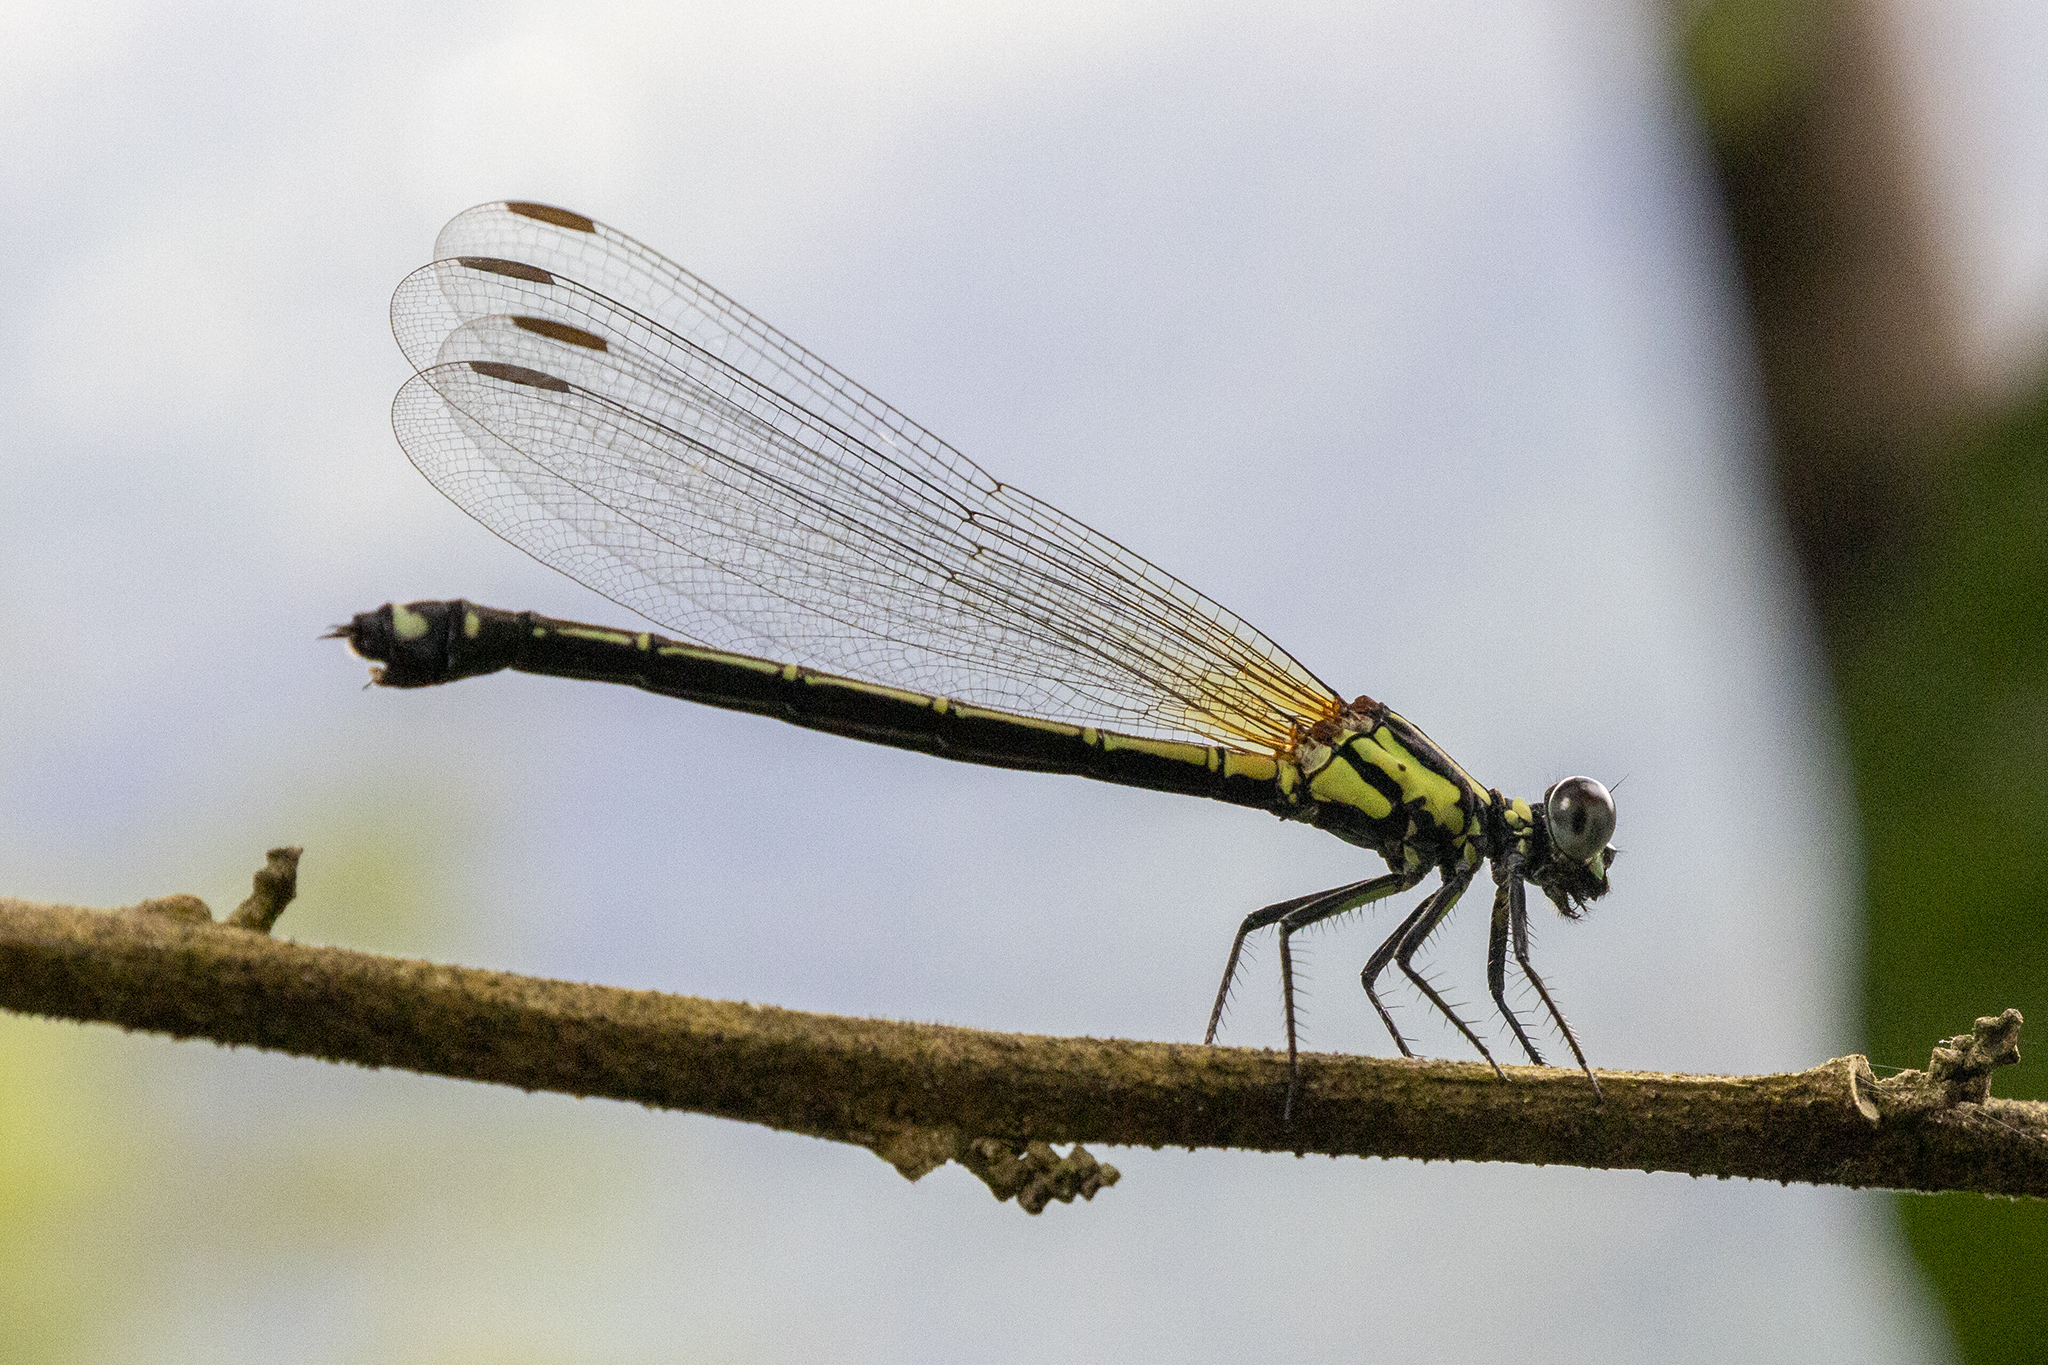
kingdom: Animalia
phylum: Arthropoda
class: Insecta
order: Odonata
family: Euphaeidae
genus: Anisopleura
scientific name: Anisopleura lestoides
